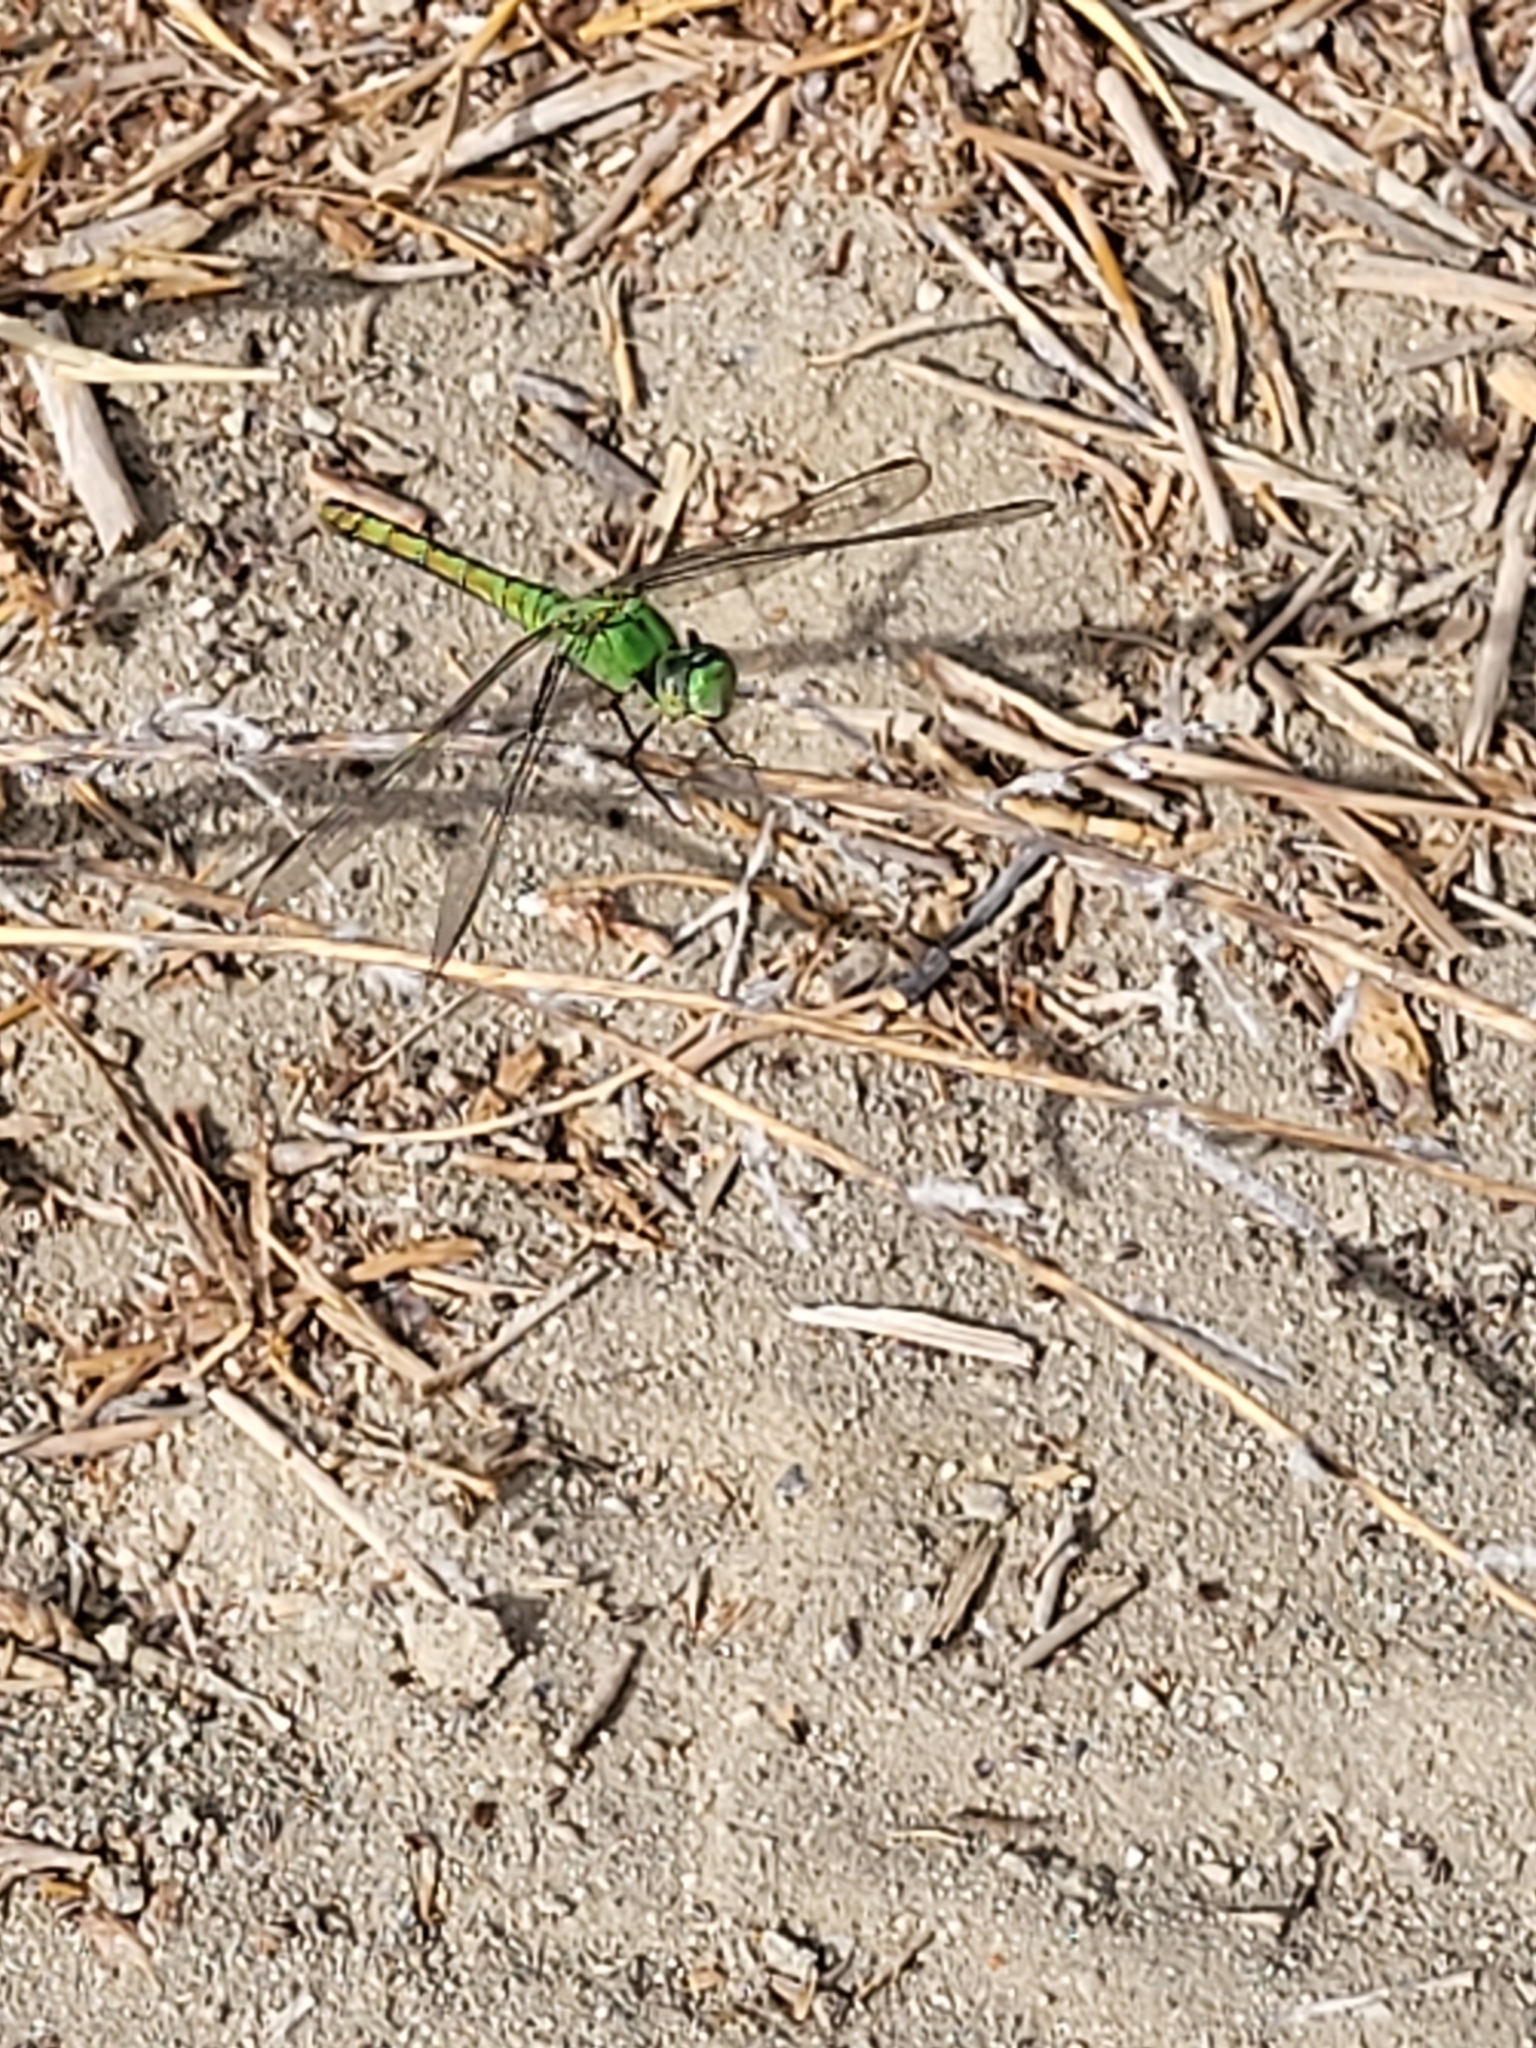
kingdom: Animalia
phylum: Arthropoda
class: Insecta
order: Odonata
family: Libellulidae
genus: Erythemis
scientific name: Erythemis collocata
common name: Western pondhawk
